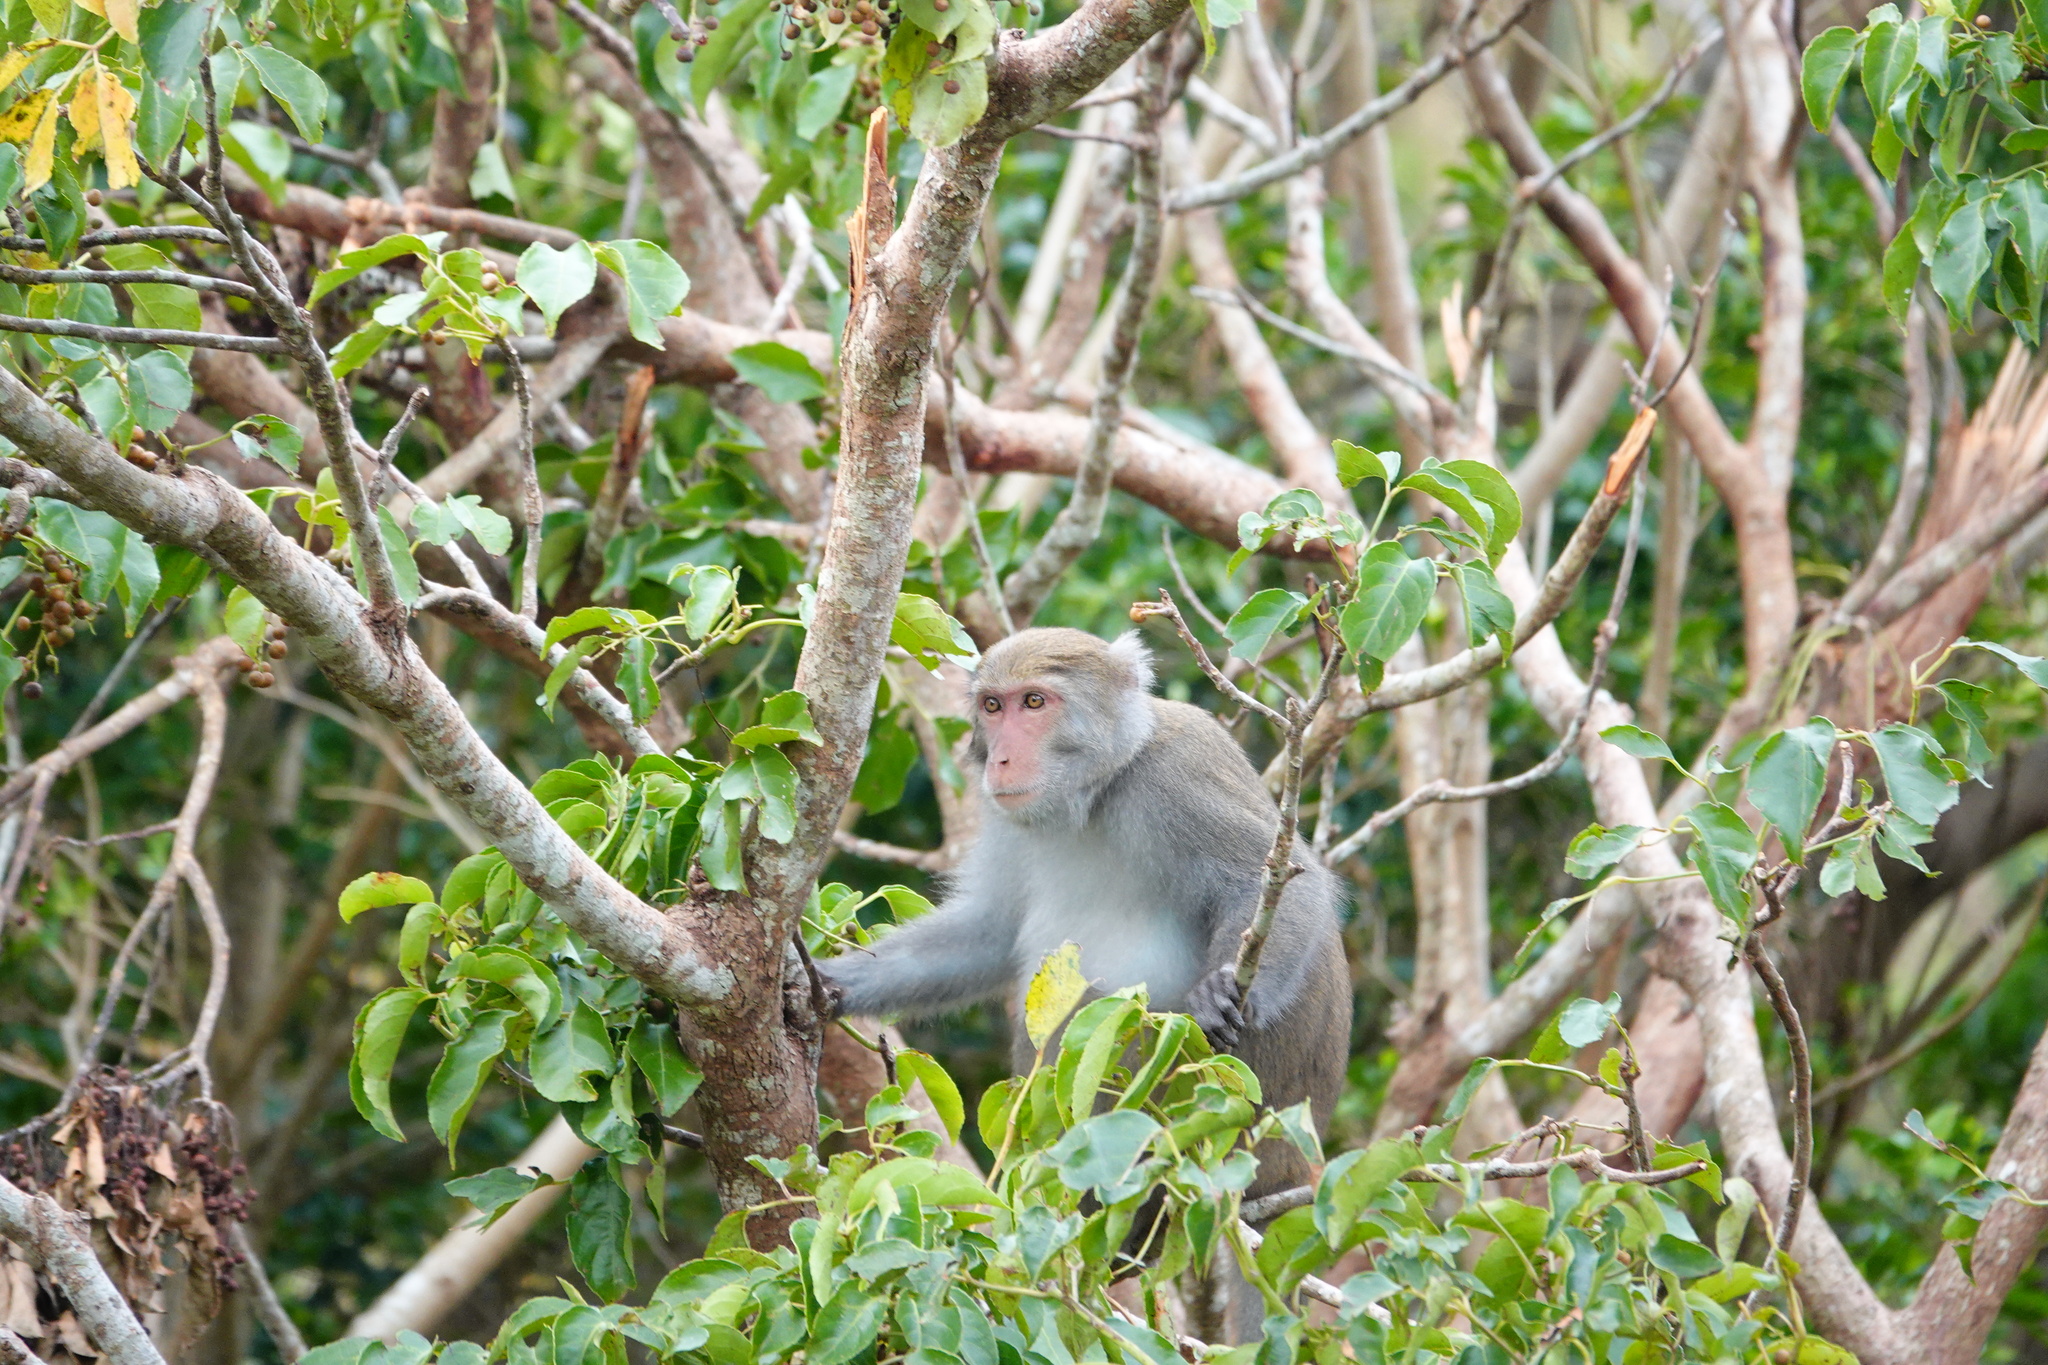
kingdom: Animalia
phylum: Chordata
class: Mammalia
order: Primates
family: Cercopithecidae
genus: Macaca
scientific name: Macaca cyclopis
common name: Formosan rock macaque
